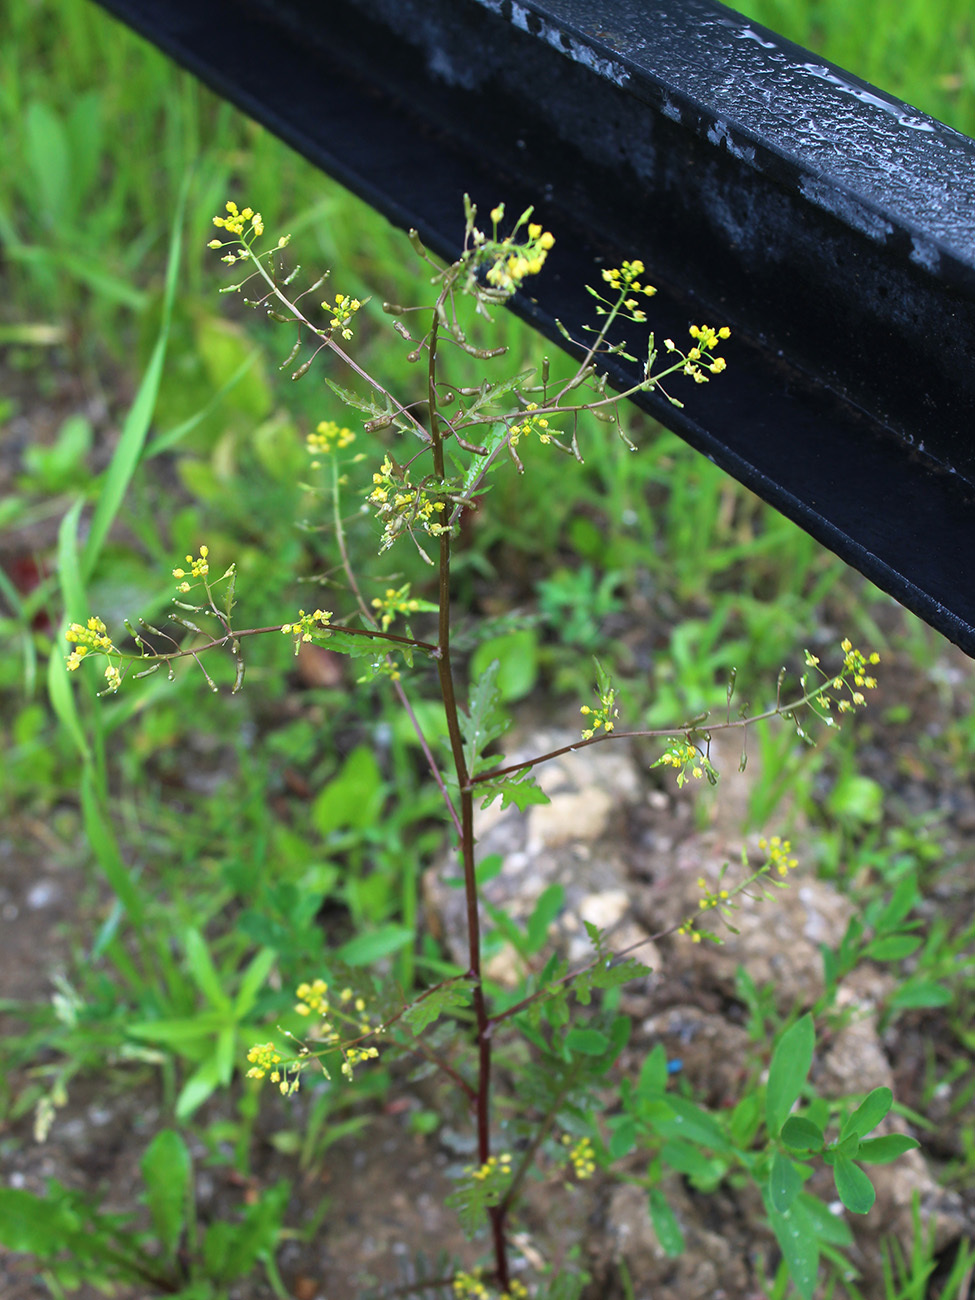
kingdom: Plantae
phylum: Tracheophyta
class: Magnoliopsida
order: Brassicales
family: Brassicaceae
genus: Rorippa
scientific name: Rorippa palustris
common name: Marsh yellow-cress
